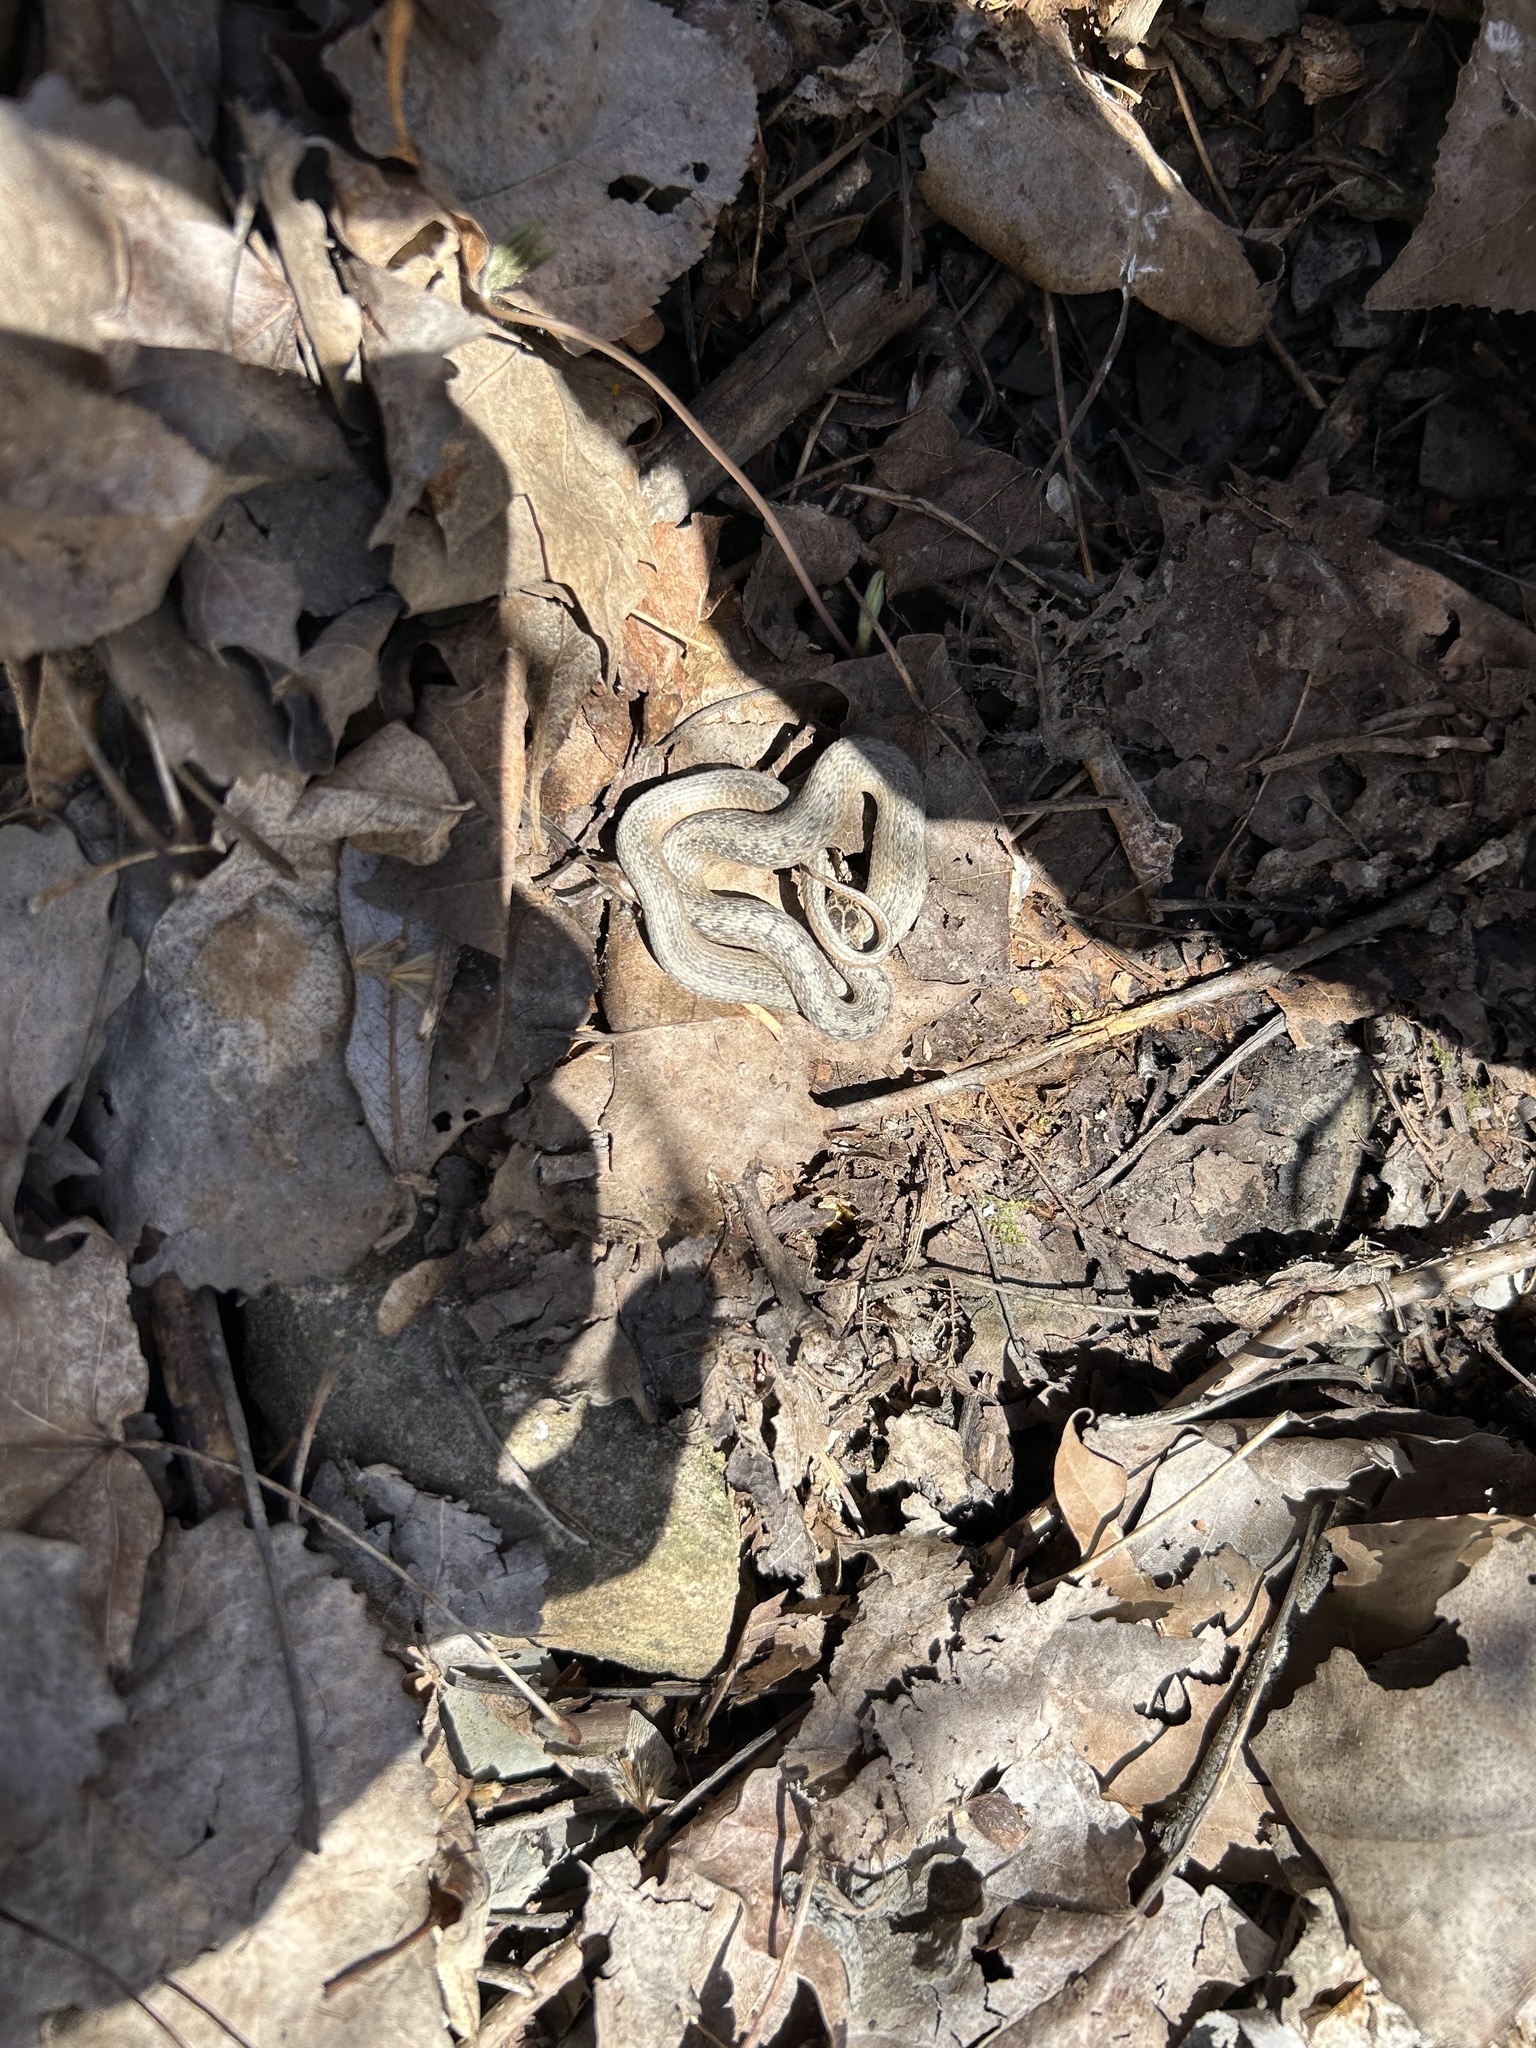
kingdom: Animalia
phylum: Chordata
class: Squamata
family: Colubridae
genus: Storeria
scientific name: Storeria dekayi
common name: (dekay’s) brown snake
